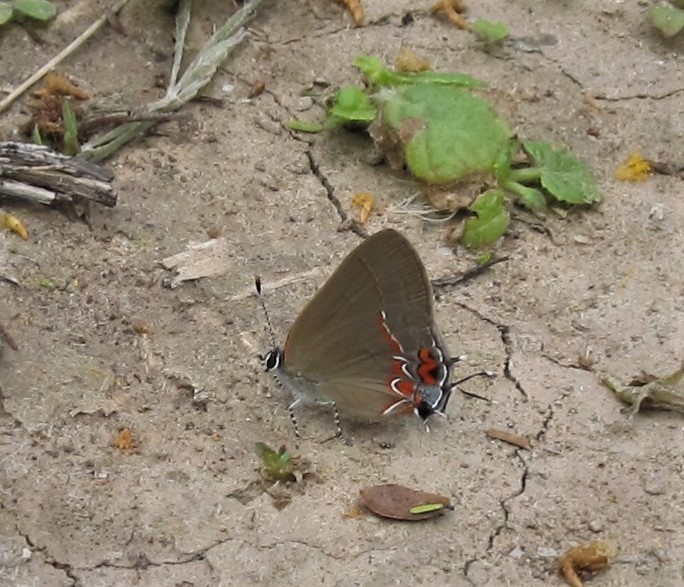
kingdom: Animalia
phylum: Arthropoda
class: Insecta
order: Lepidoptera
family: Lycaenidae
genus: Calycopis
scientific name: Calycopis isobeon
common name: Dusky-blue groundstreak
